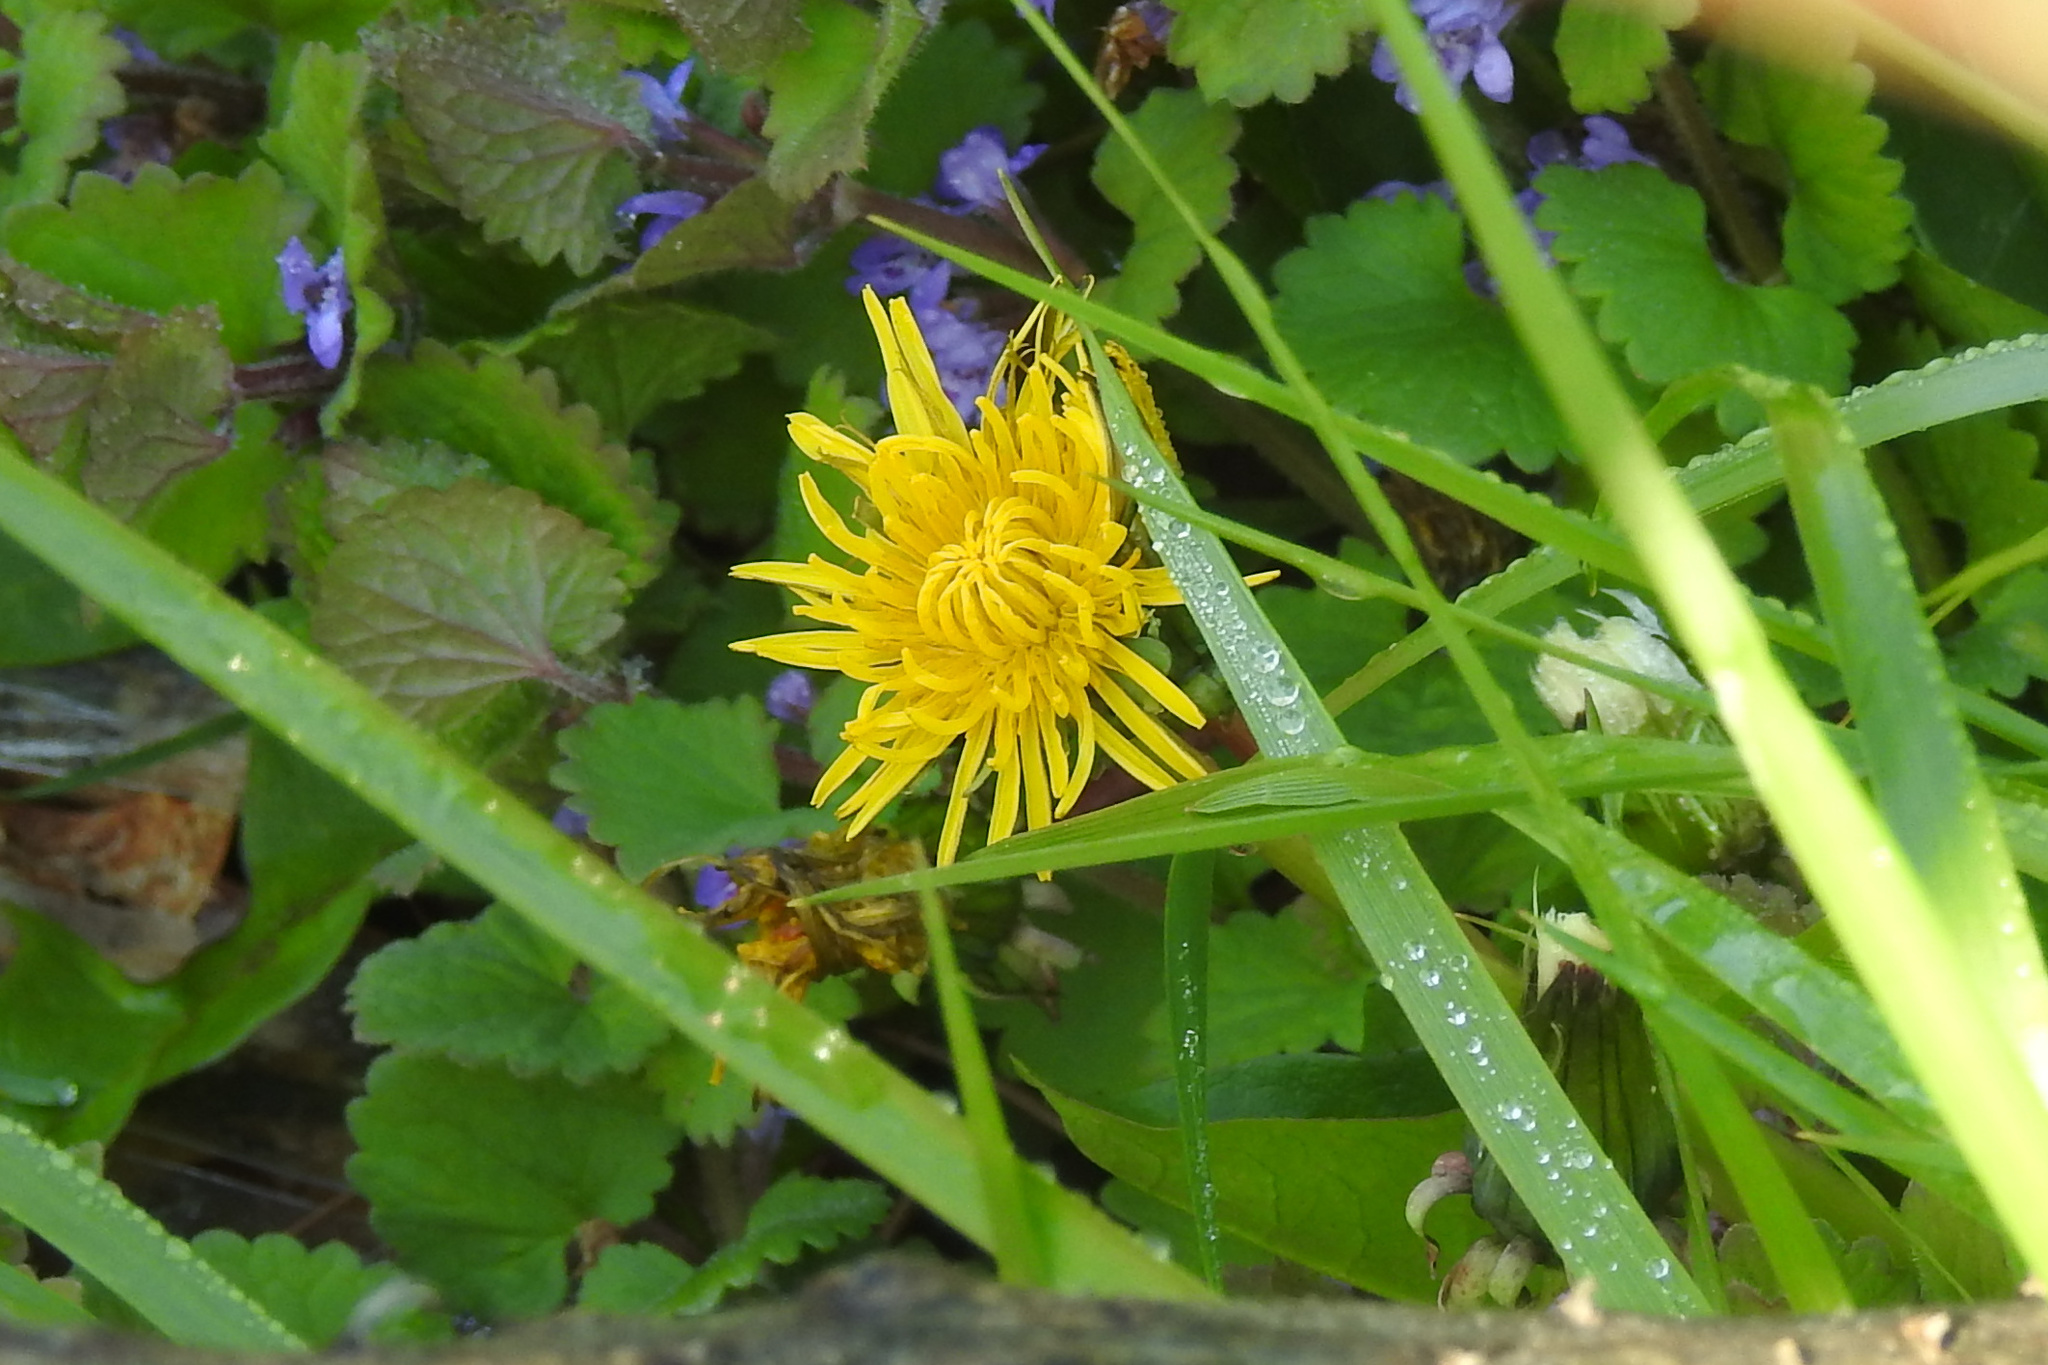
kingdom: Plantae
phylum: Tracheophyta
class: Magnoliopsida
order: Asterales
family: Asteraceae
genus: Taraxacum
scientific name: Taraxacum officinale
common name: Common dandelion
